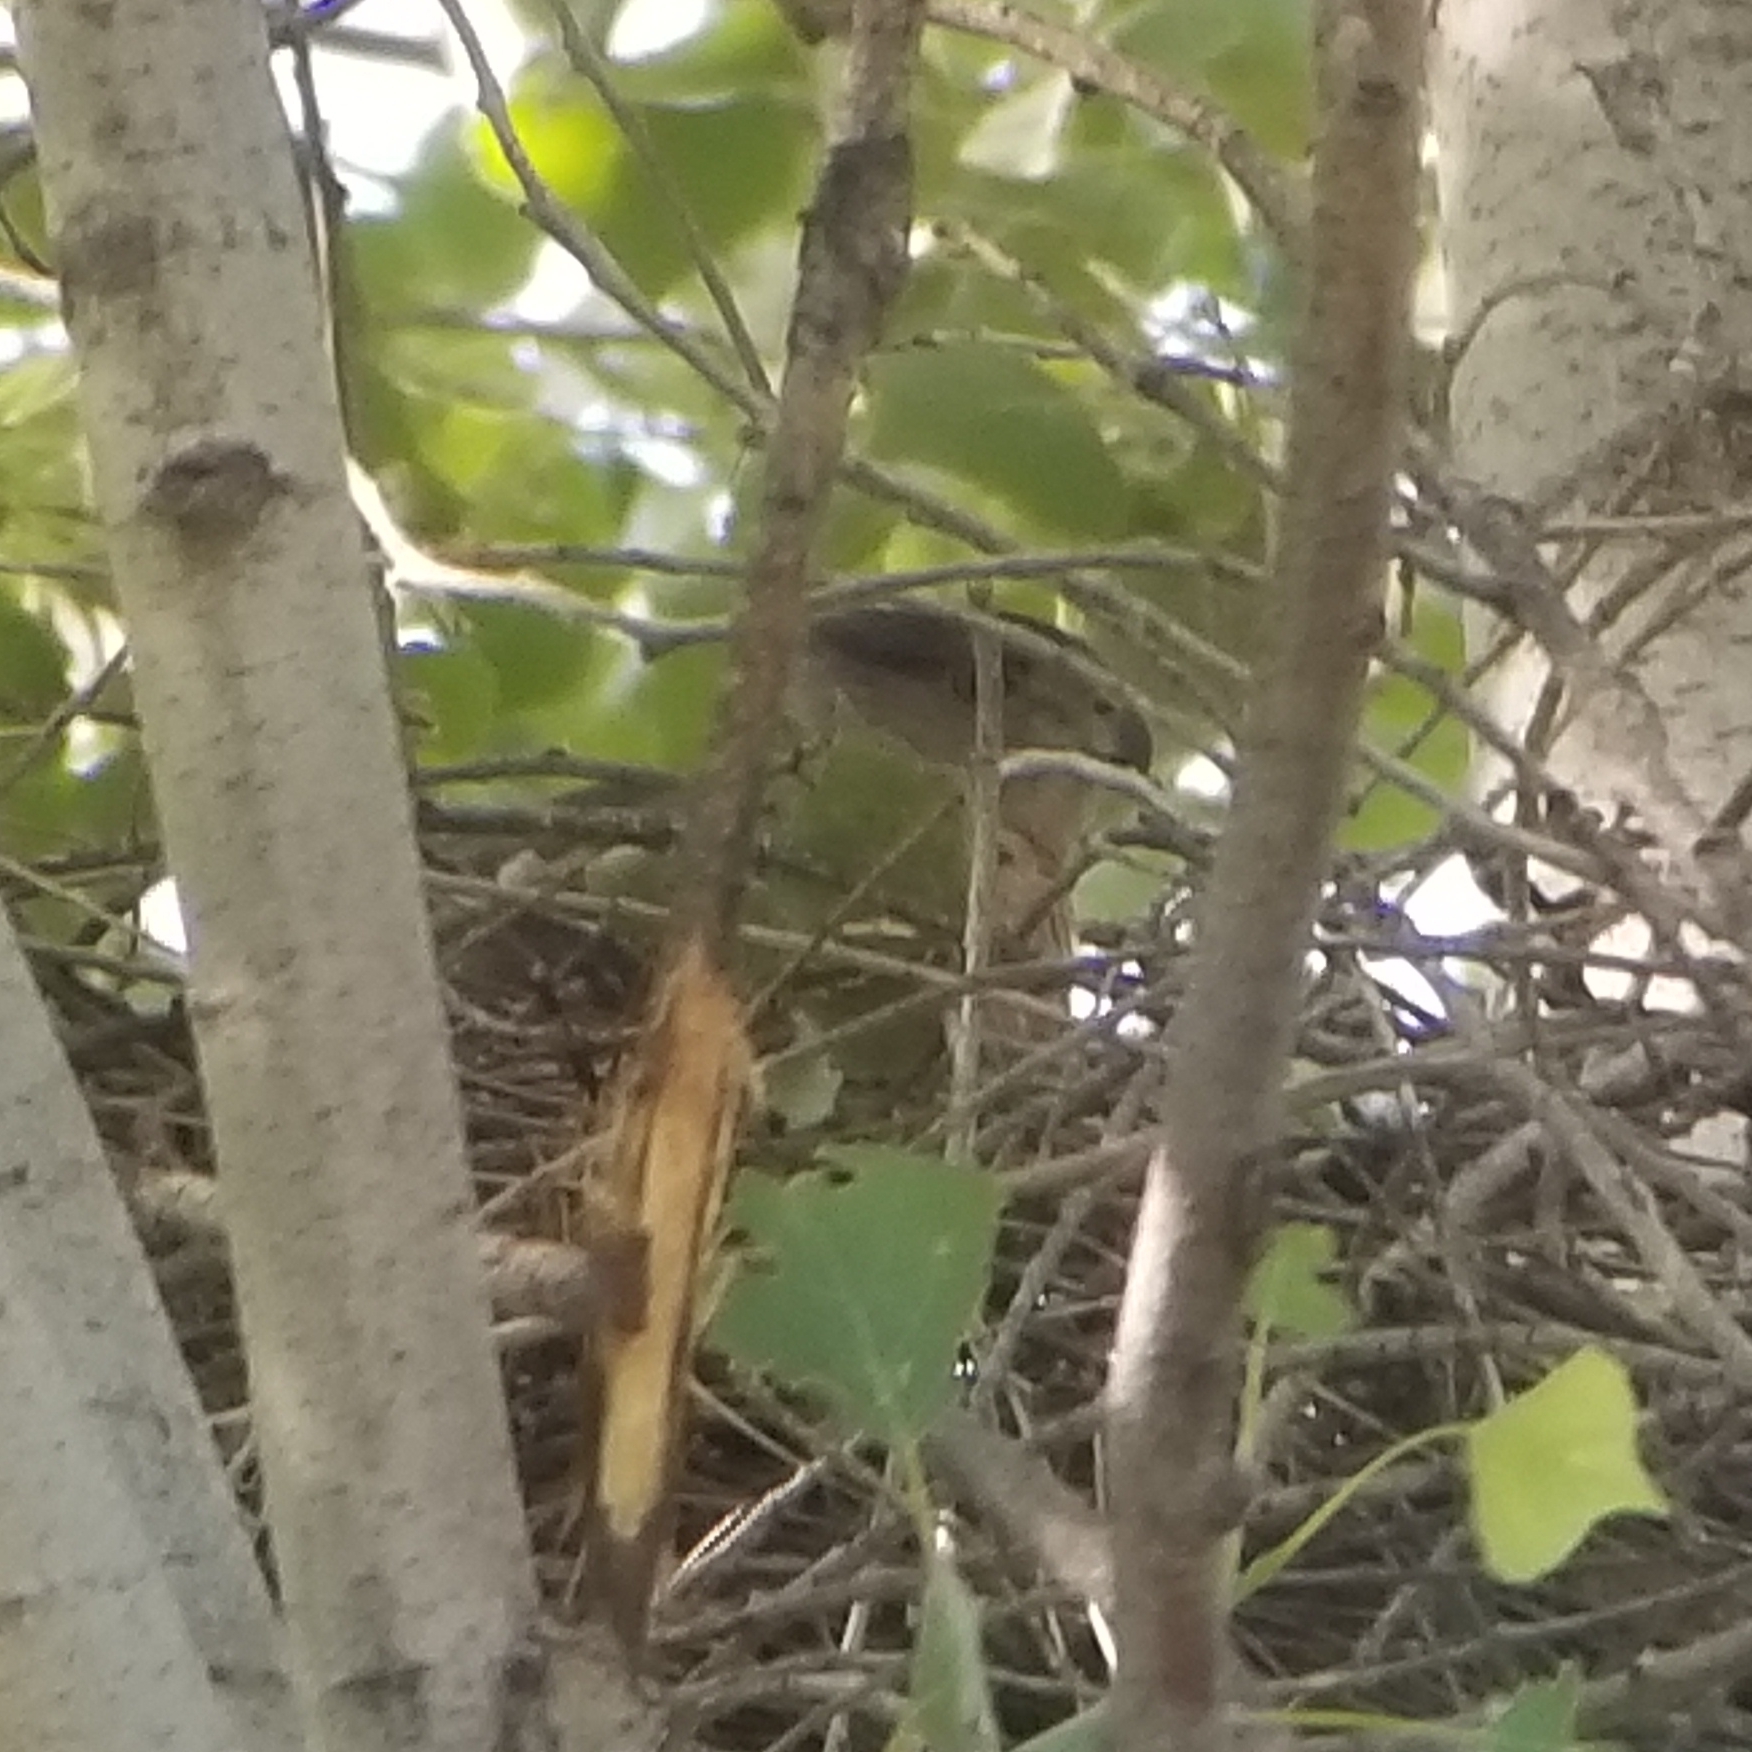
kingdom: Animalia
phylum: Chordata
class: Aves
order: Accipitriformes
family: Accipitridae
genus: Accipiter
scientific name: Accipiter cooperii
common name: Cooper's hawk
